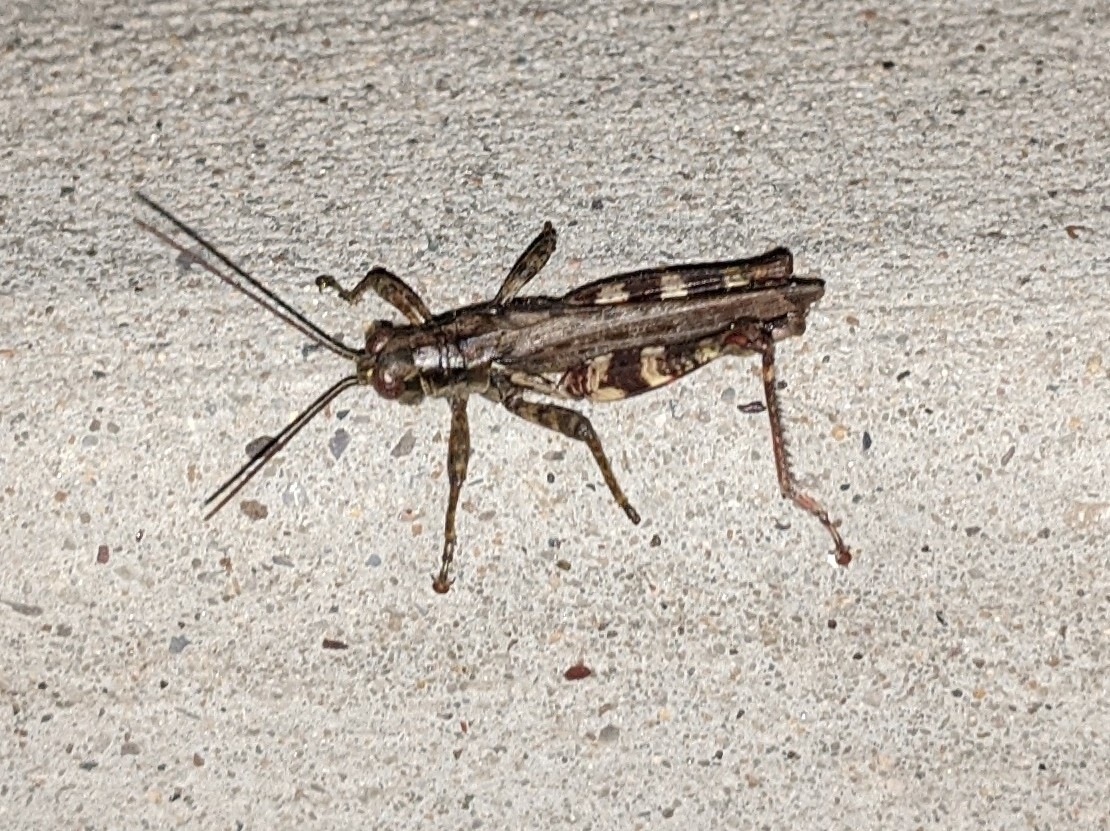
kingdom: Animalia
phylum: Arthropoda
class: Insecta
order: Orthoptera
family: Acrididae
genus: Melanoplus
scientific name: Melanoplus punctulatus
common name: Pine-tree spur-throat grasshopper
